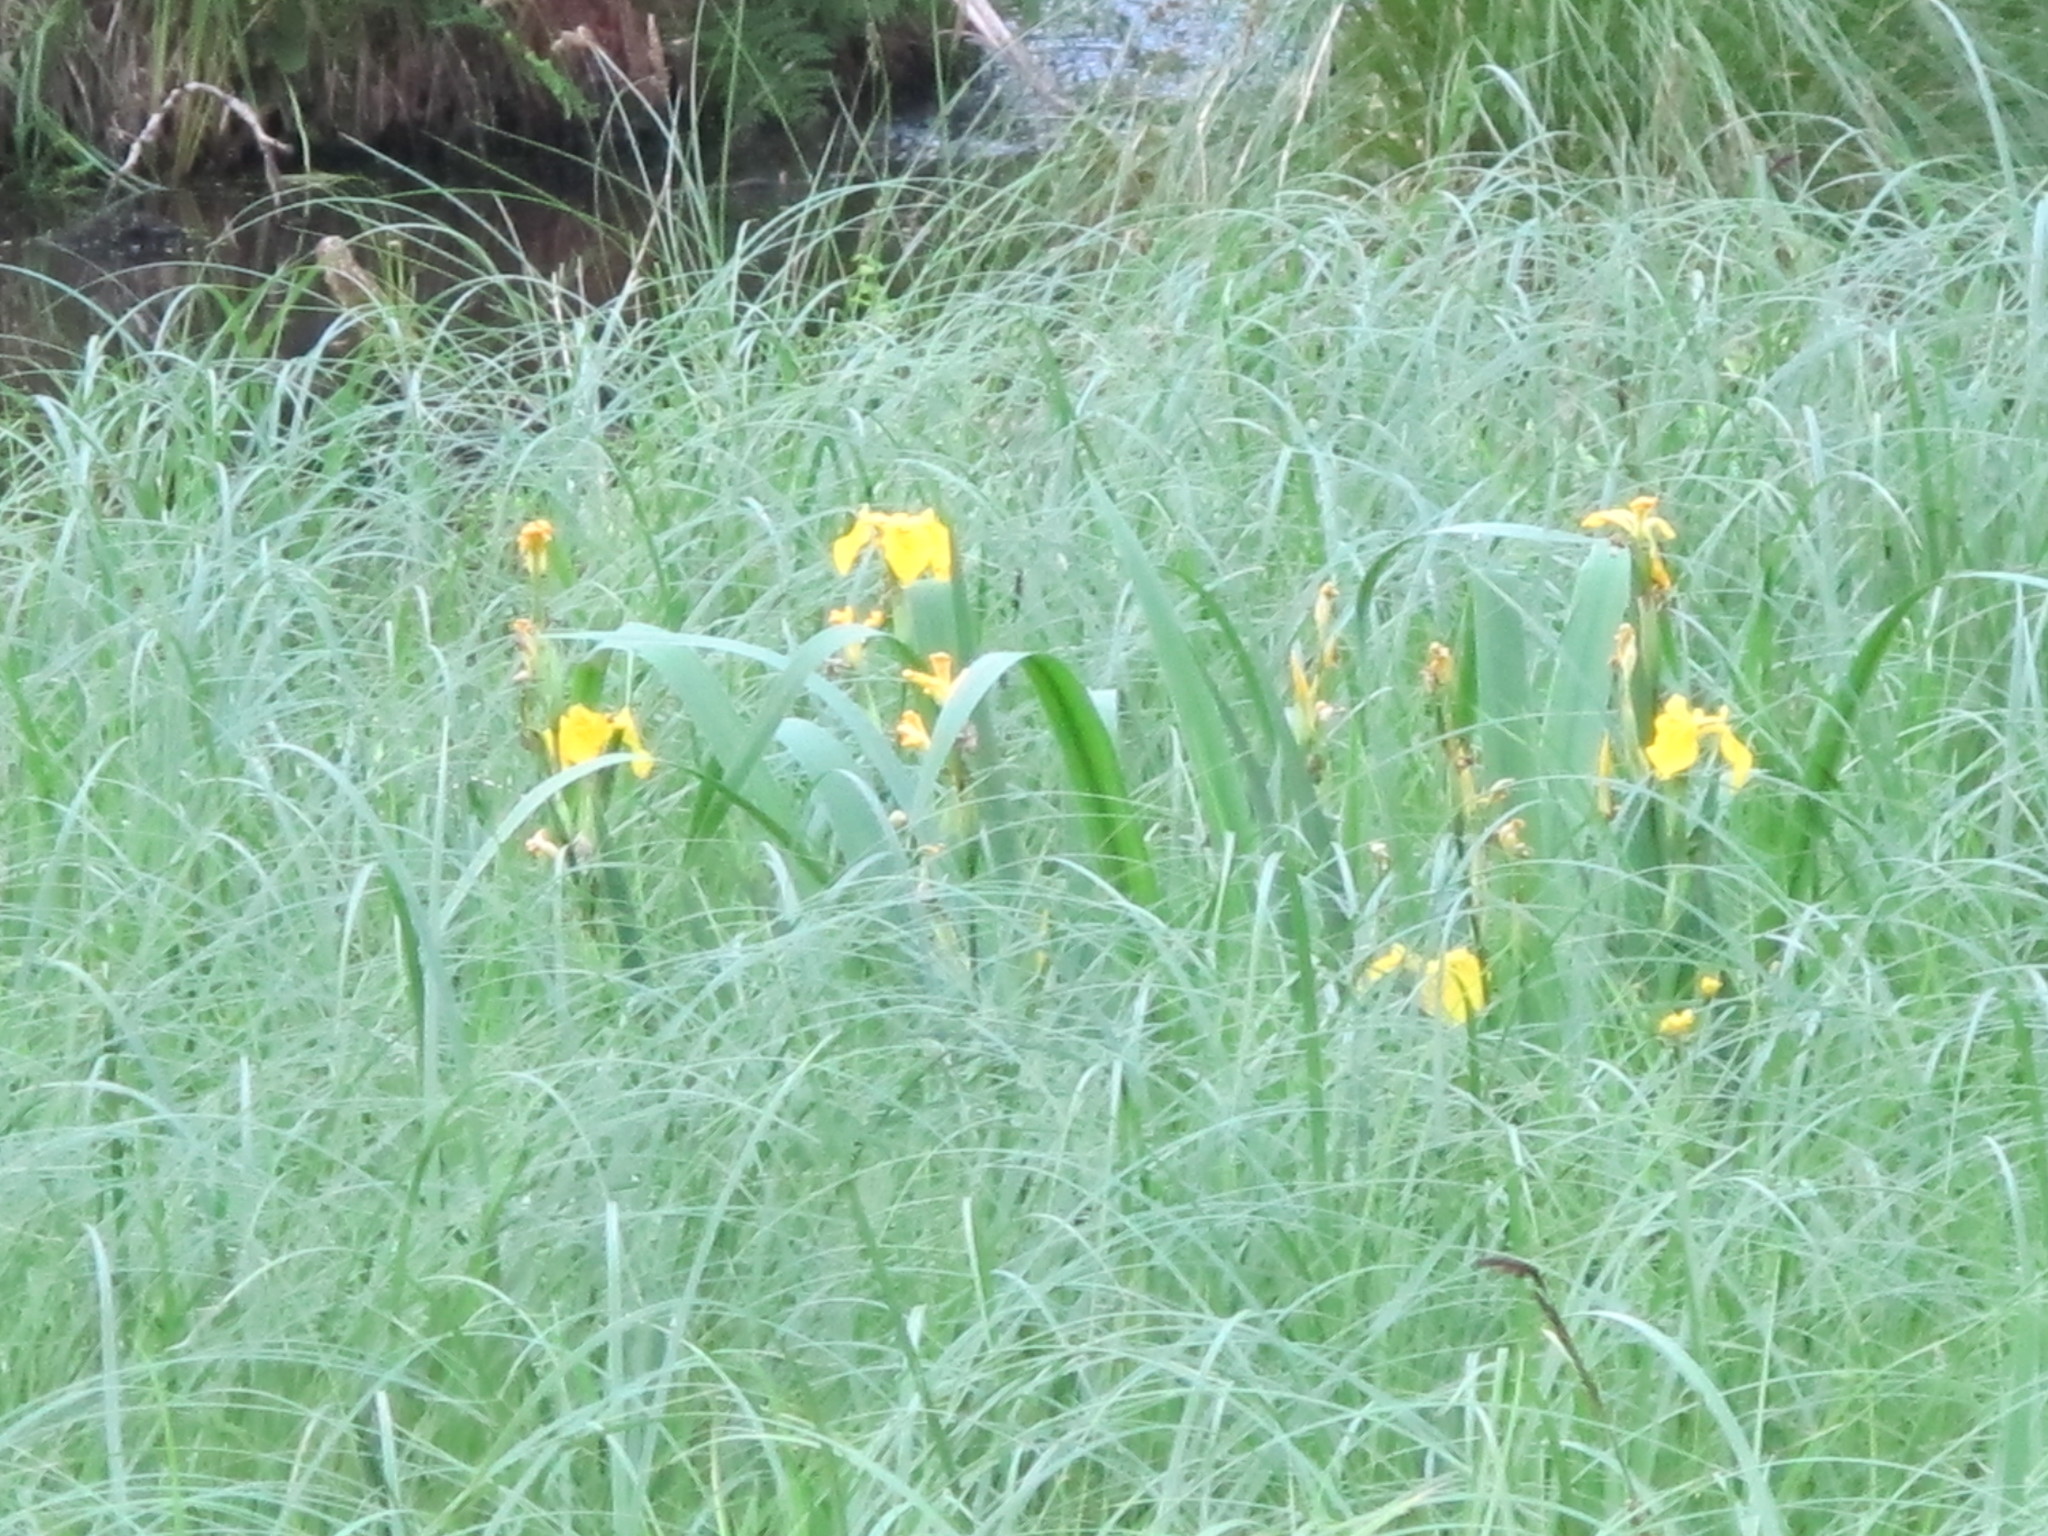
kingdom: Plantae
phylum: Tracheophyta
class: Liliopsida
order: Asparagales
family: Iridaceae
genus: Iris
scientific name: Iris pseudacorus
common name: Yellow flag
